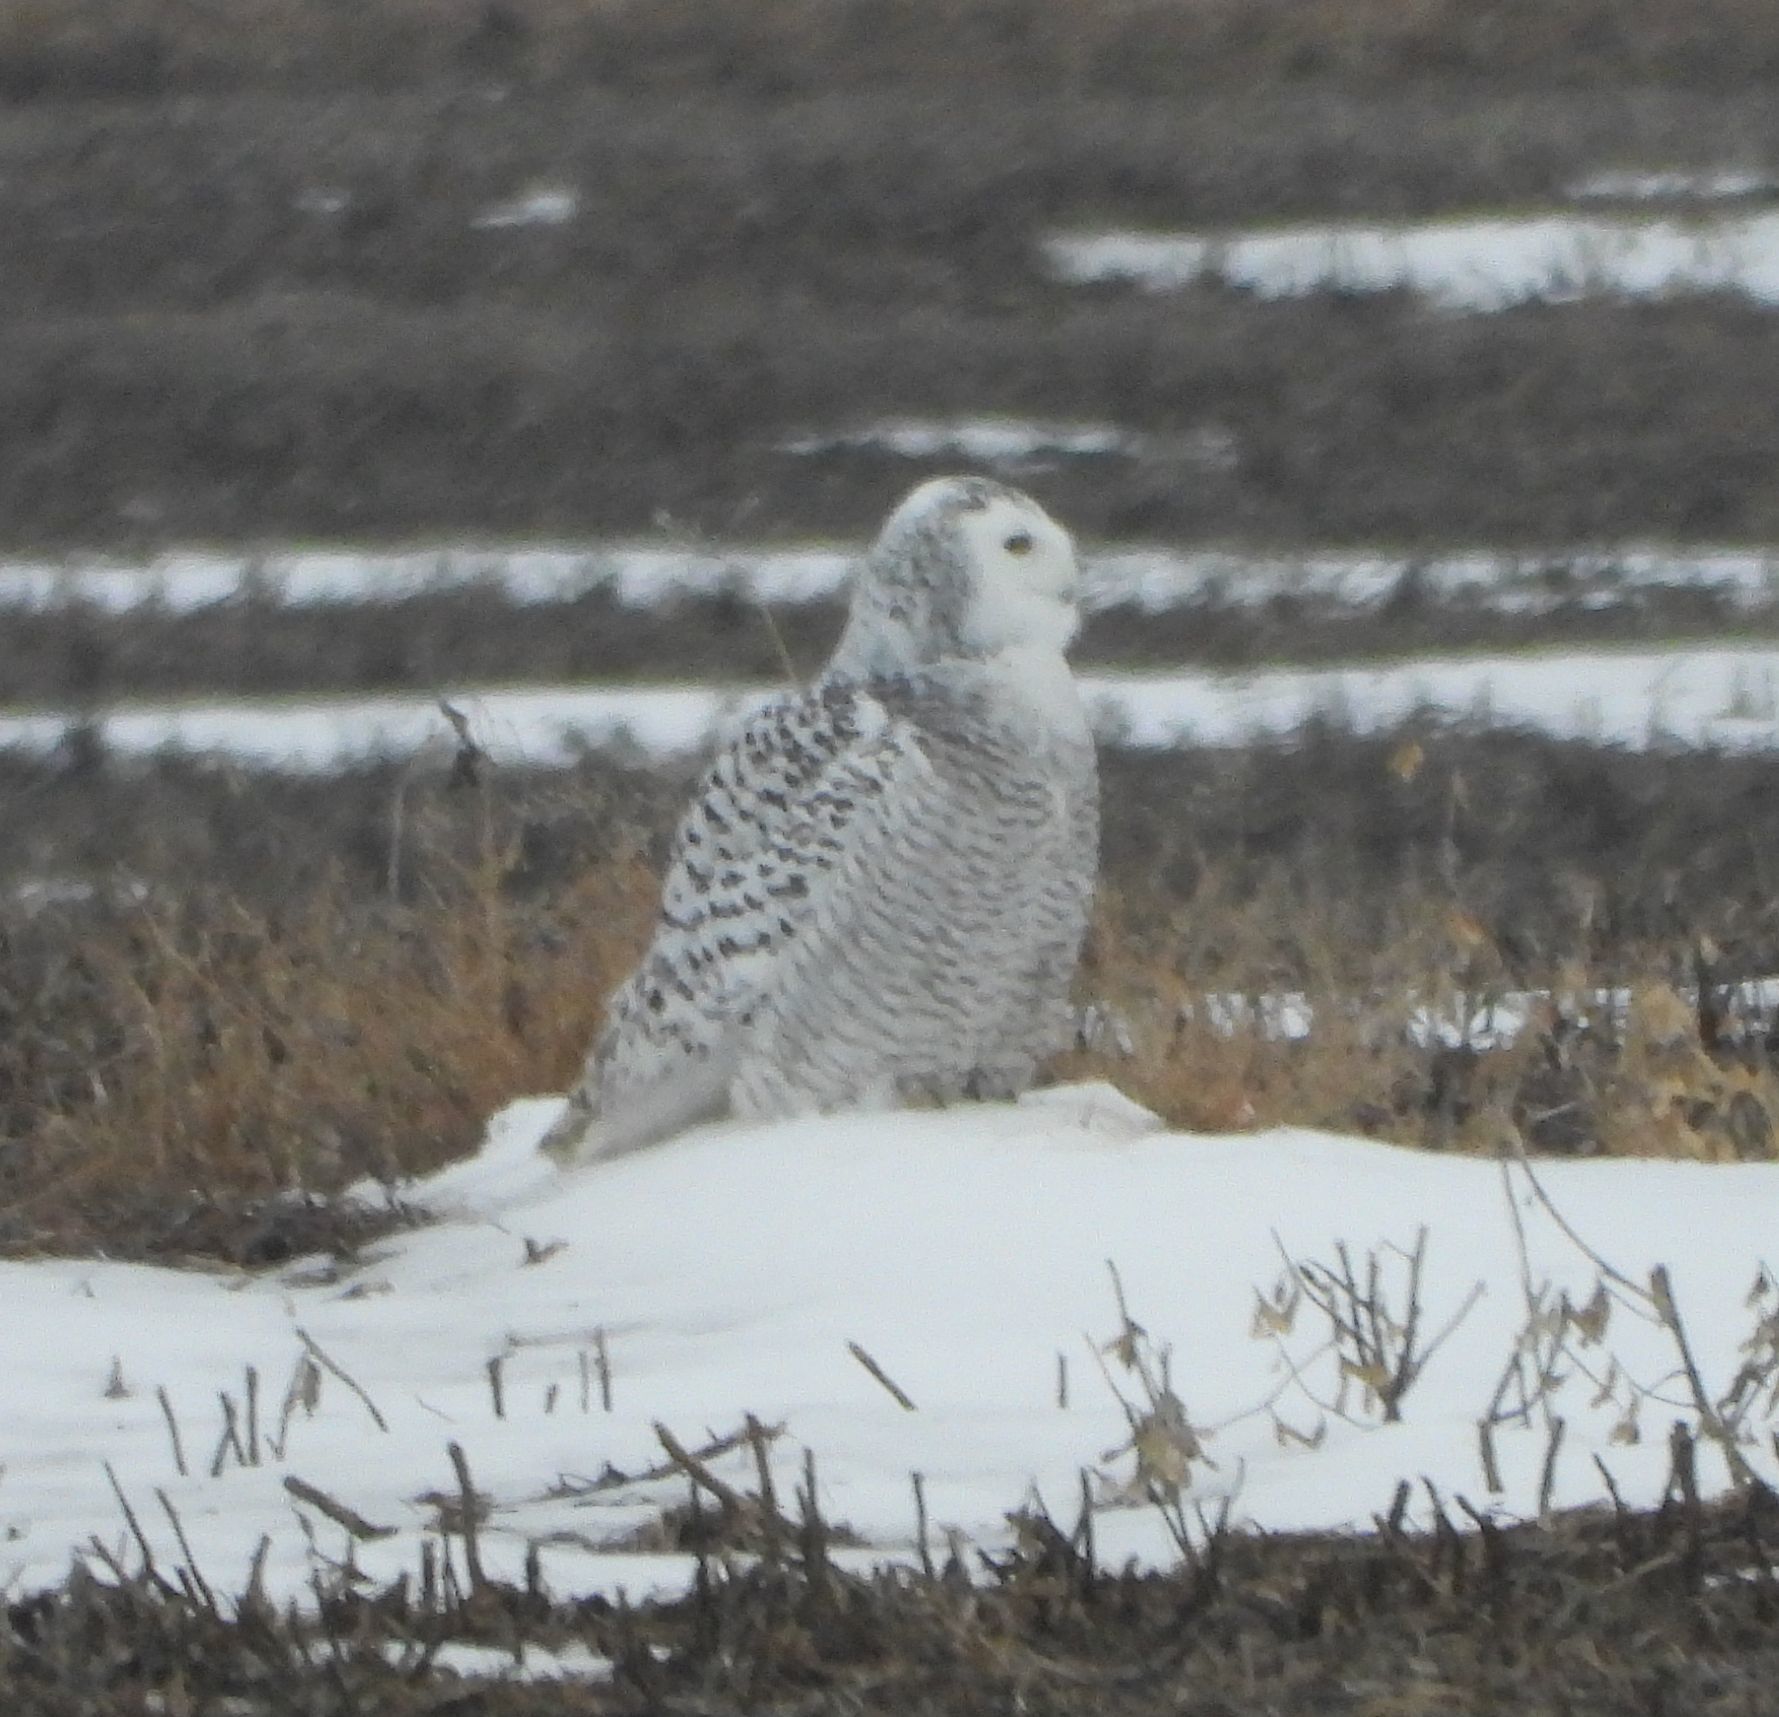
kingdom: Animalia
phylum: Chordata
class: Aves
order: Strigiformes
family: Strigidae
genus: Bubo
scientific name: Bubo scandiacus
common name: Snowy owl
